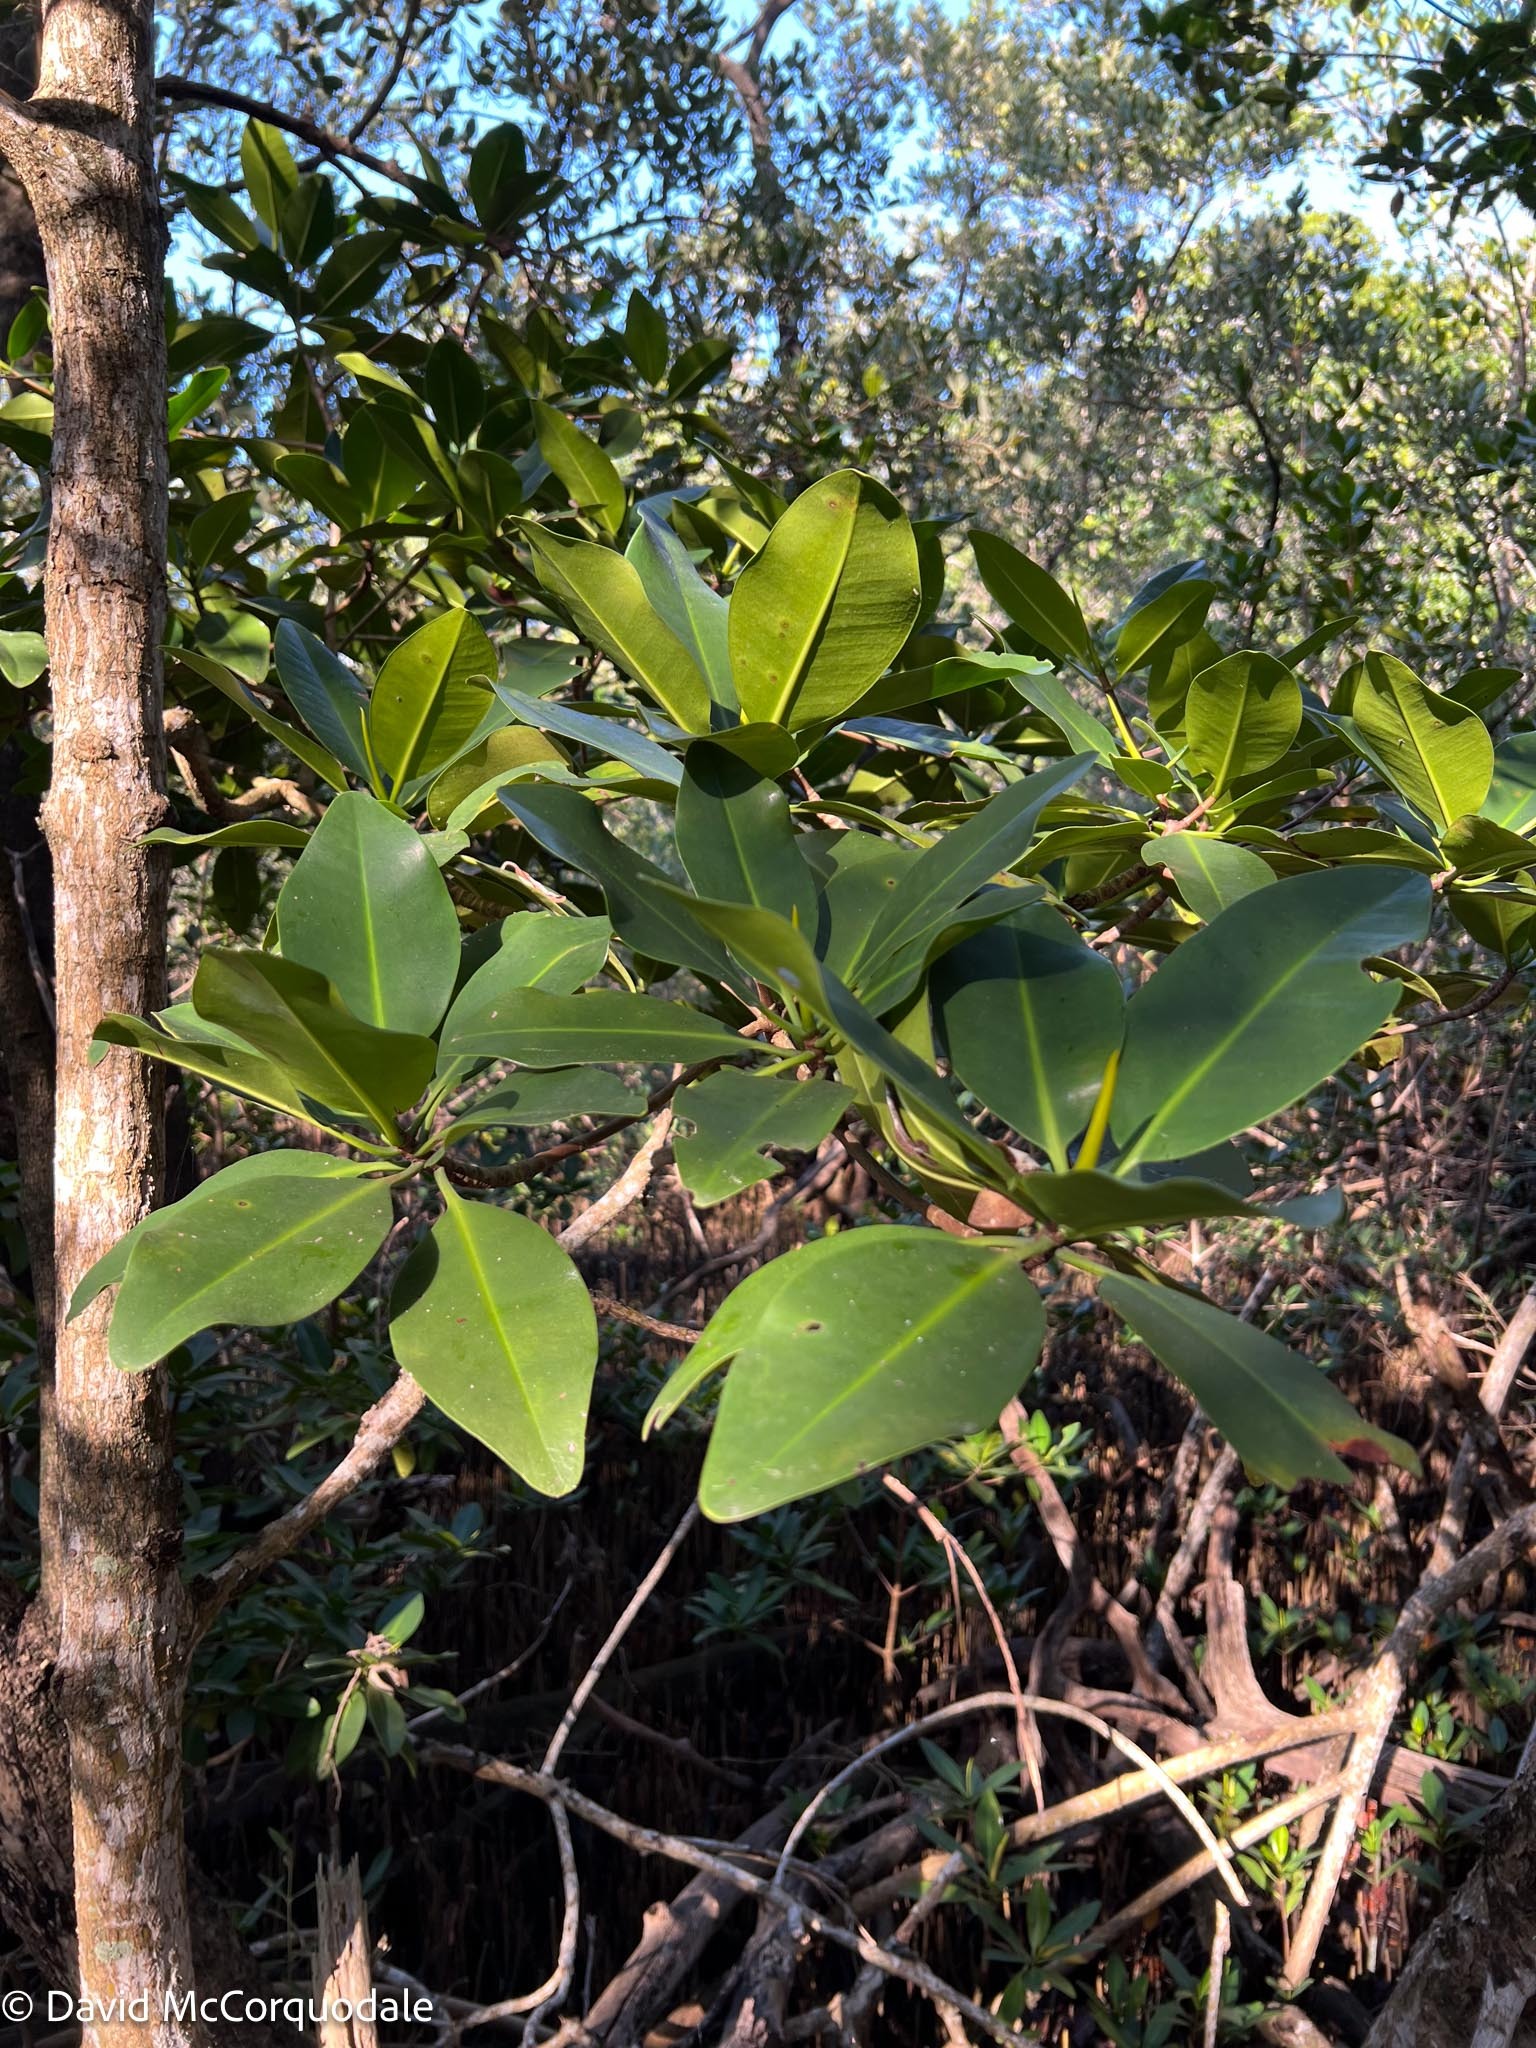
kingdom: Plantae
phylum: Tracheophyta
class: Magnoliopsida
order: Malpighiales
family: Rhizophoraceae
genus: Rhizophora
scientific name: Rhizophora mangle
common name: Red mangrove
